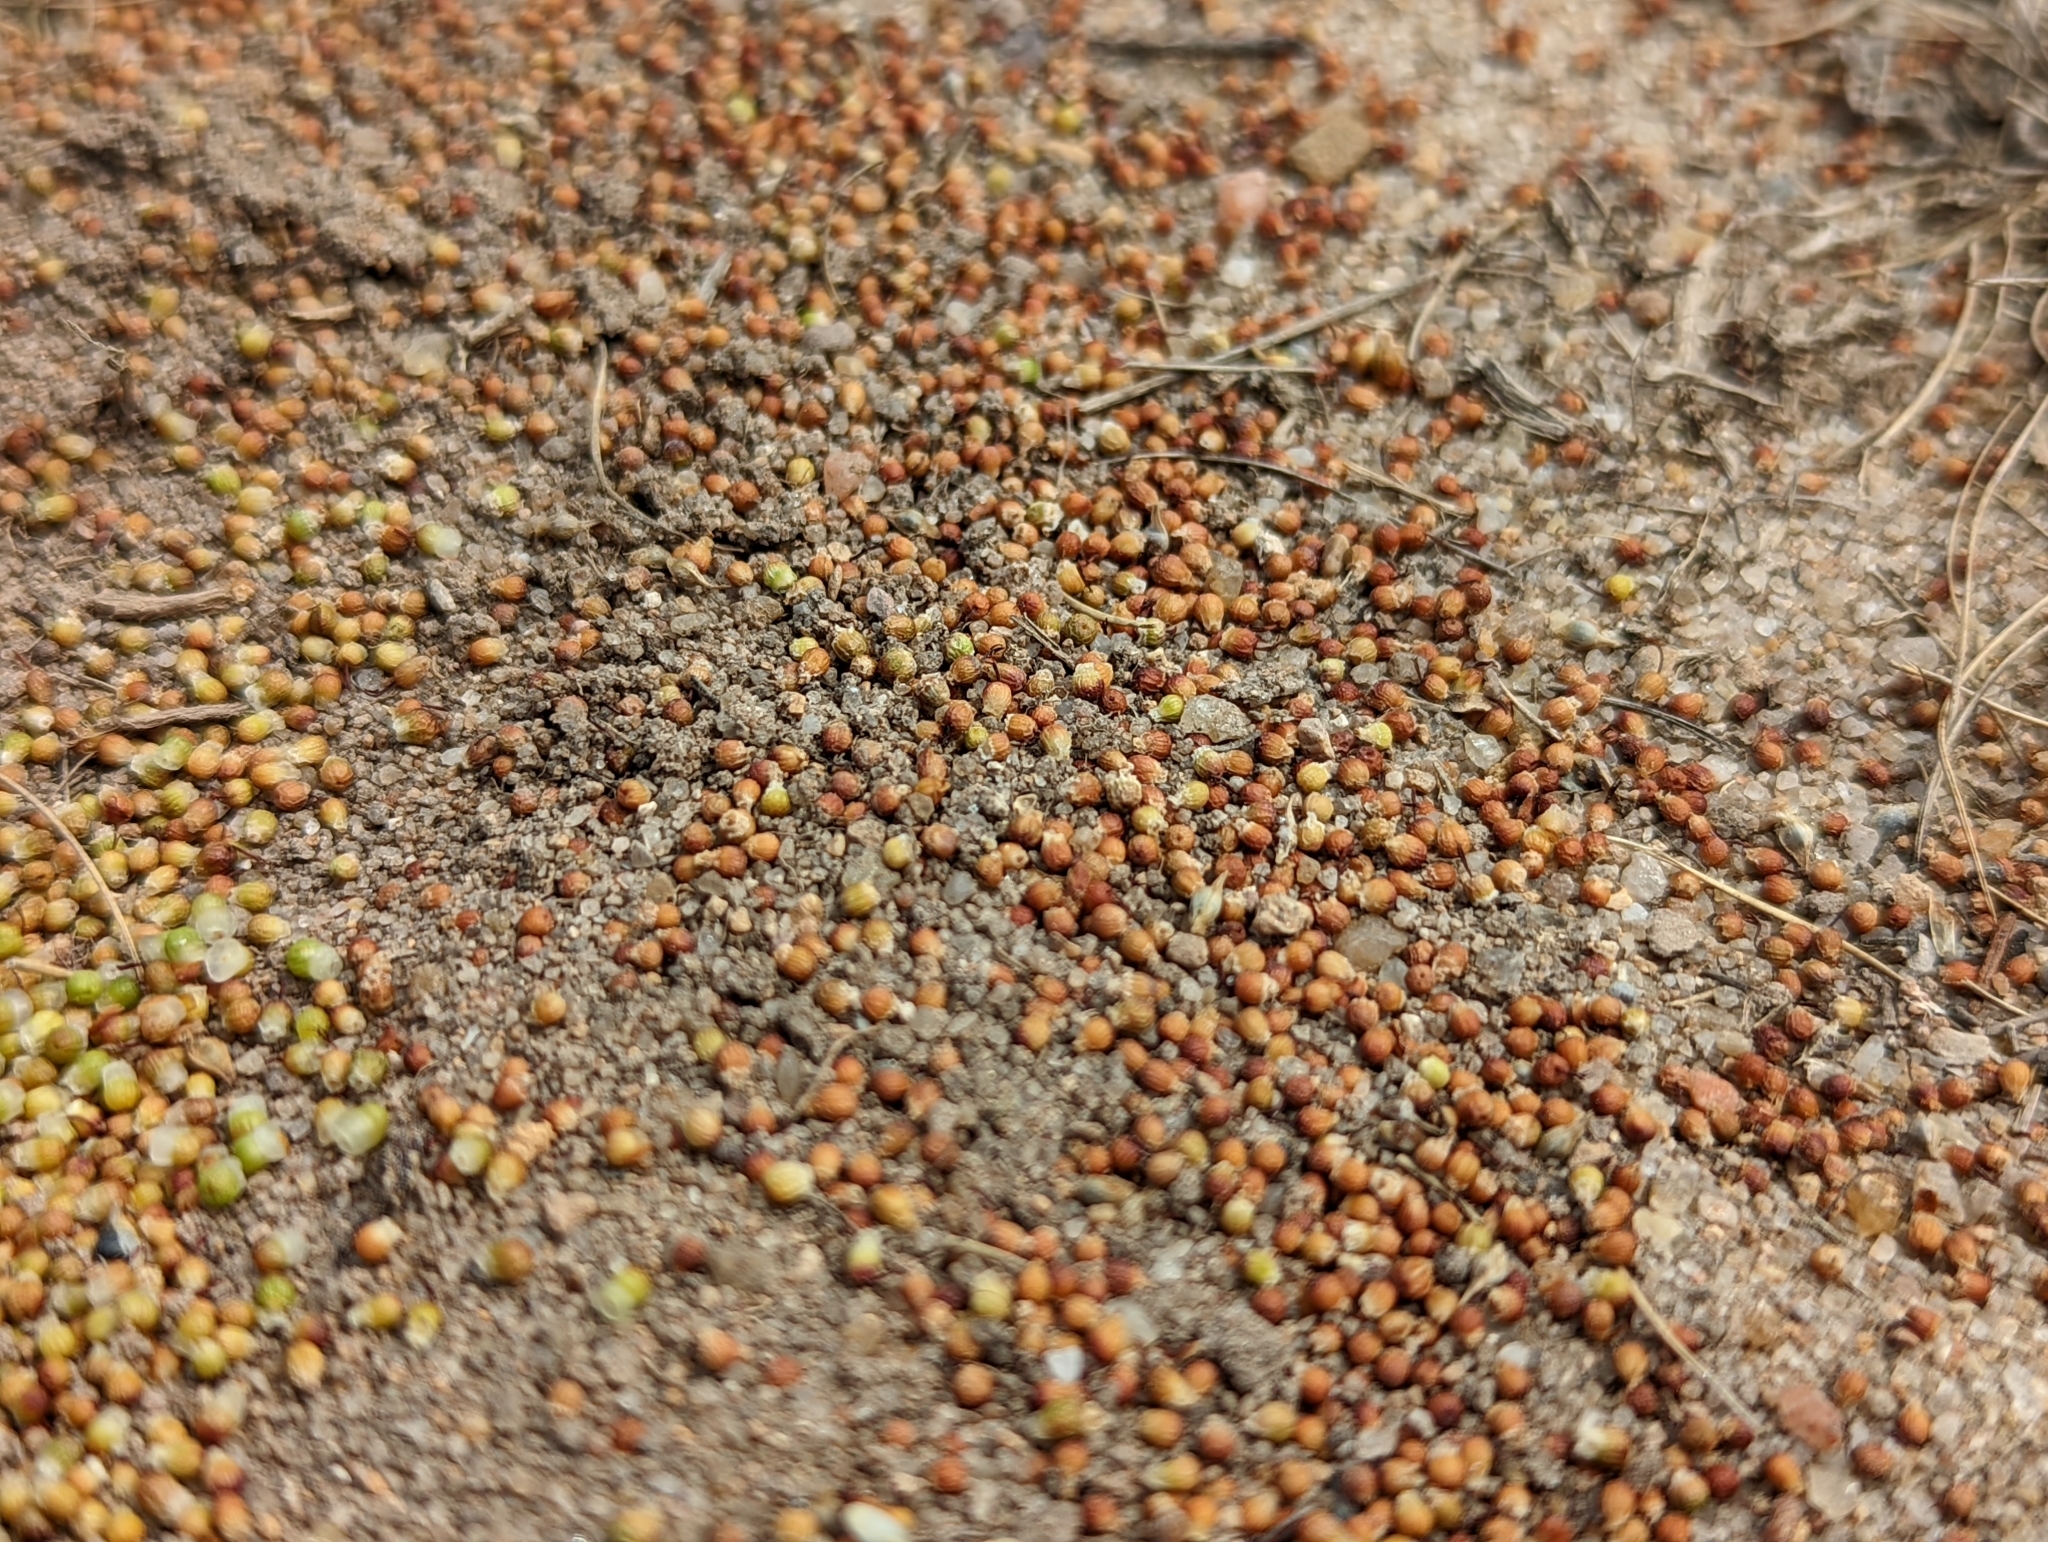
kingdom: Plantae
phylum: Tracheophyta
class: Magnoliopsida
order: Ericales
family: Ericaceae
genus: Corema
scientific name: Corema conradii
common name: Broom-crowberry
